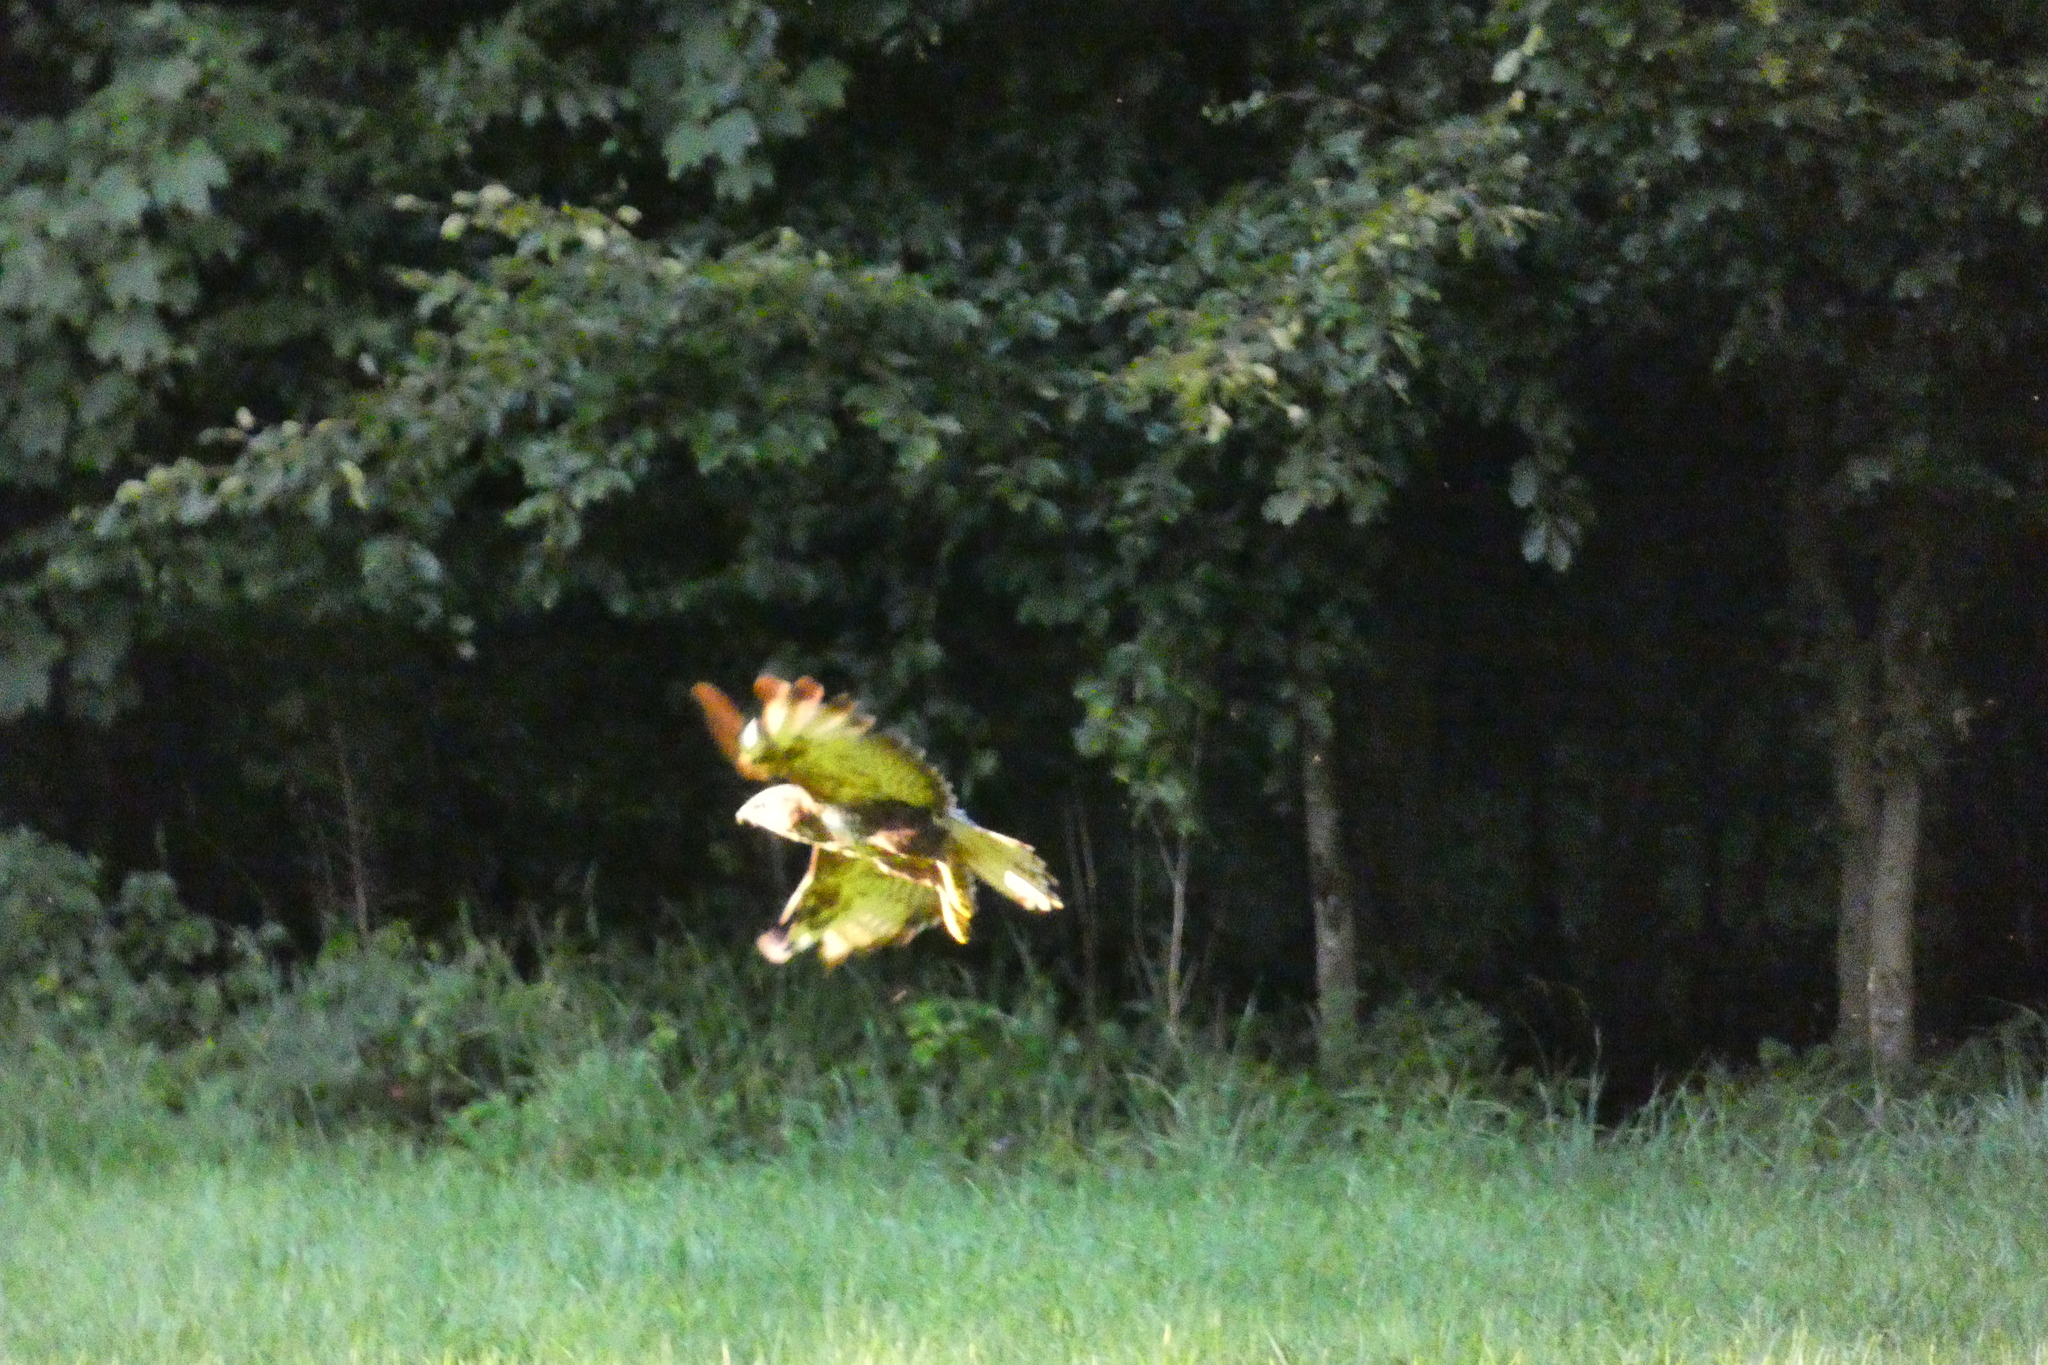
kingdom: Animalia
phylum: Chordata
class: Aves
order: Accipitriformes
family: Accipitridae
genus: Buteo
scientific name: Buteo buteo
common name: Common buzzard
